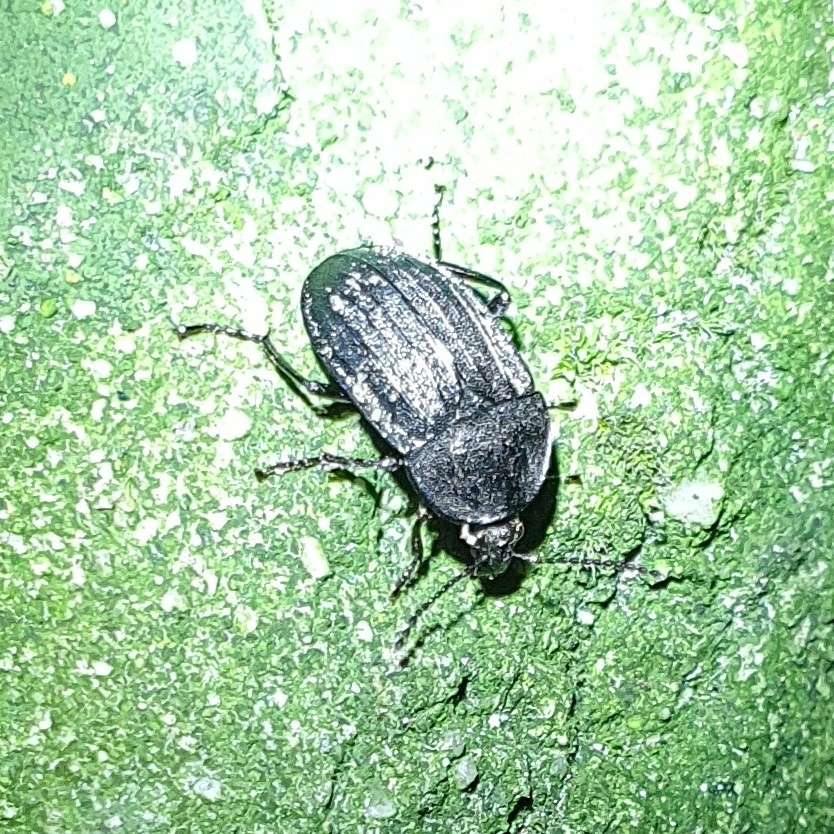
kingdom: Animalia
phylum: Arthropoda
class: Insecta
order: Coleoptera
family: Staphylinidae
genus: Silpha
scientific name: Silpha atrata
